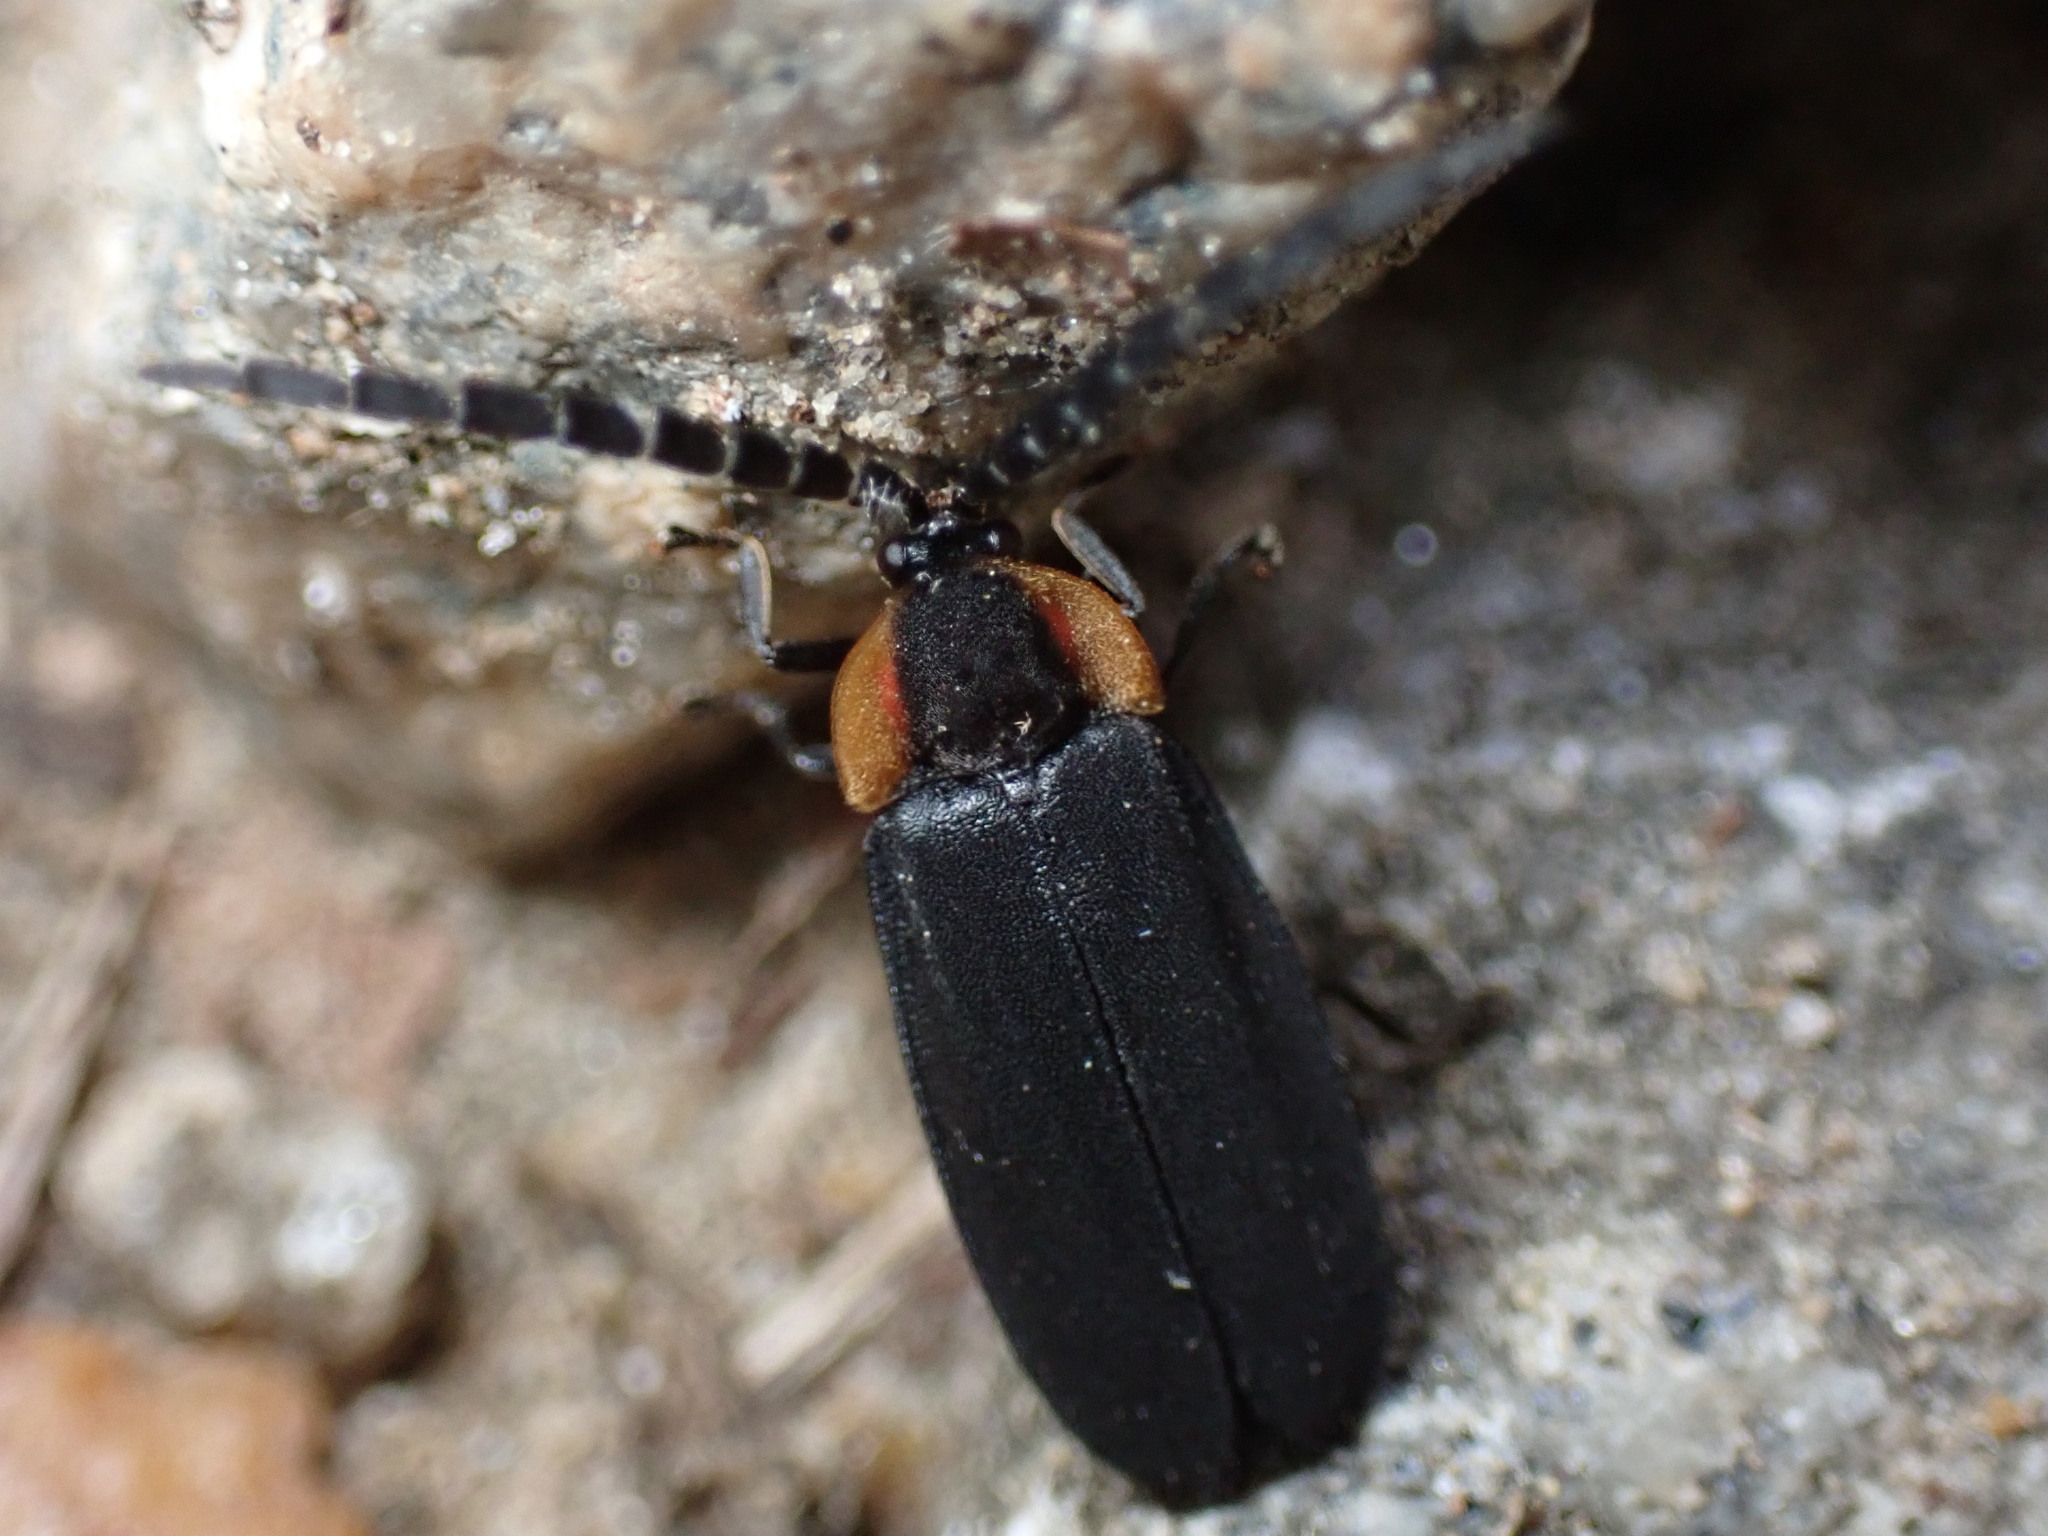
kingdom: Animalia
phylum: Arthropoda
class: Insecta
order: Coleoptera
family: Lampyridae
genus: Lucidota
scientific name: Lucidota atra
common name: Black firefly
